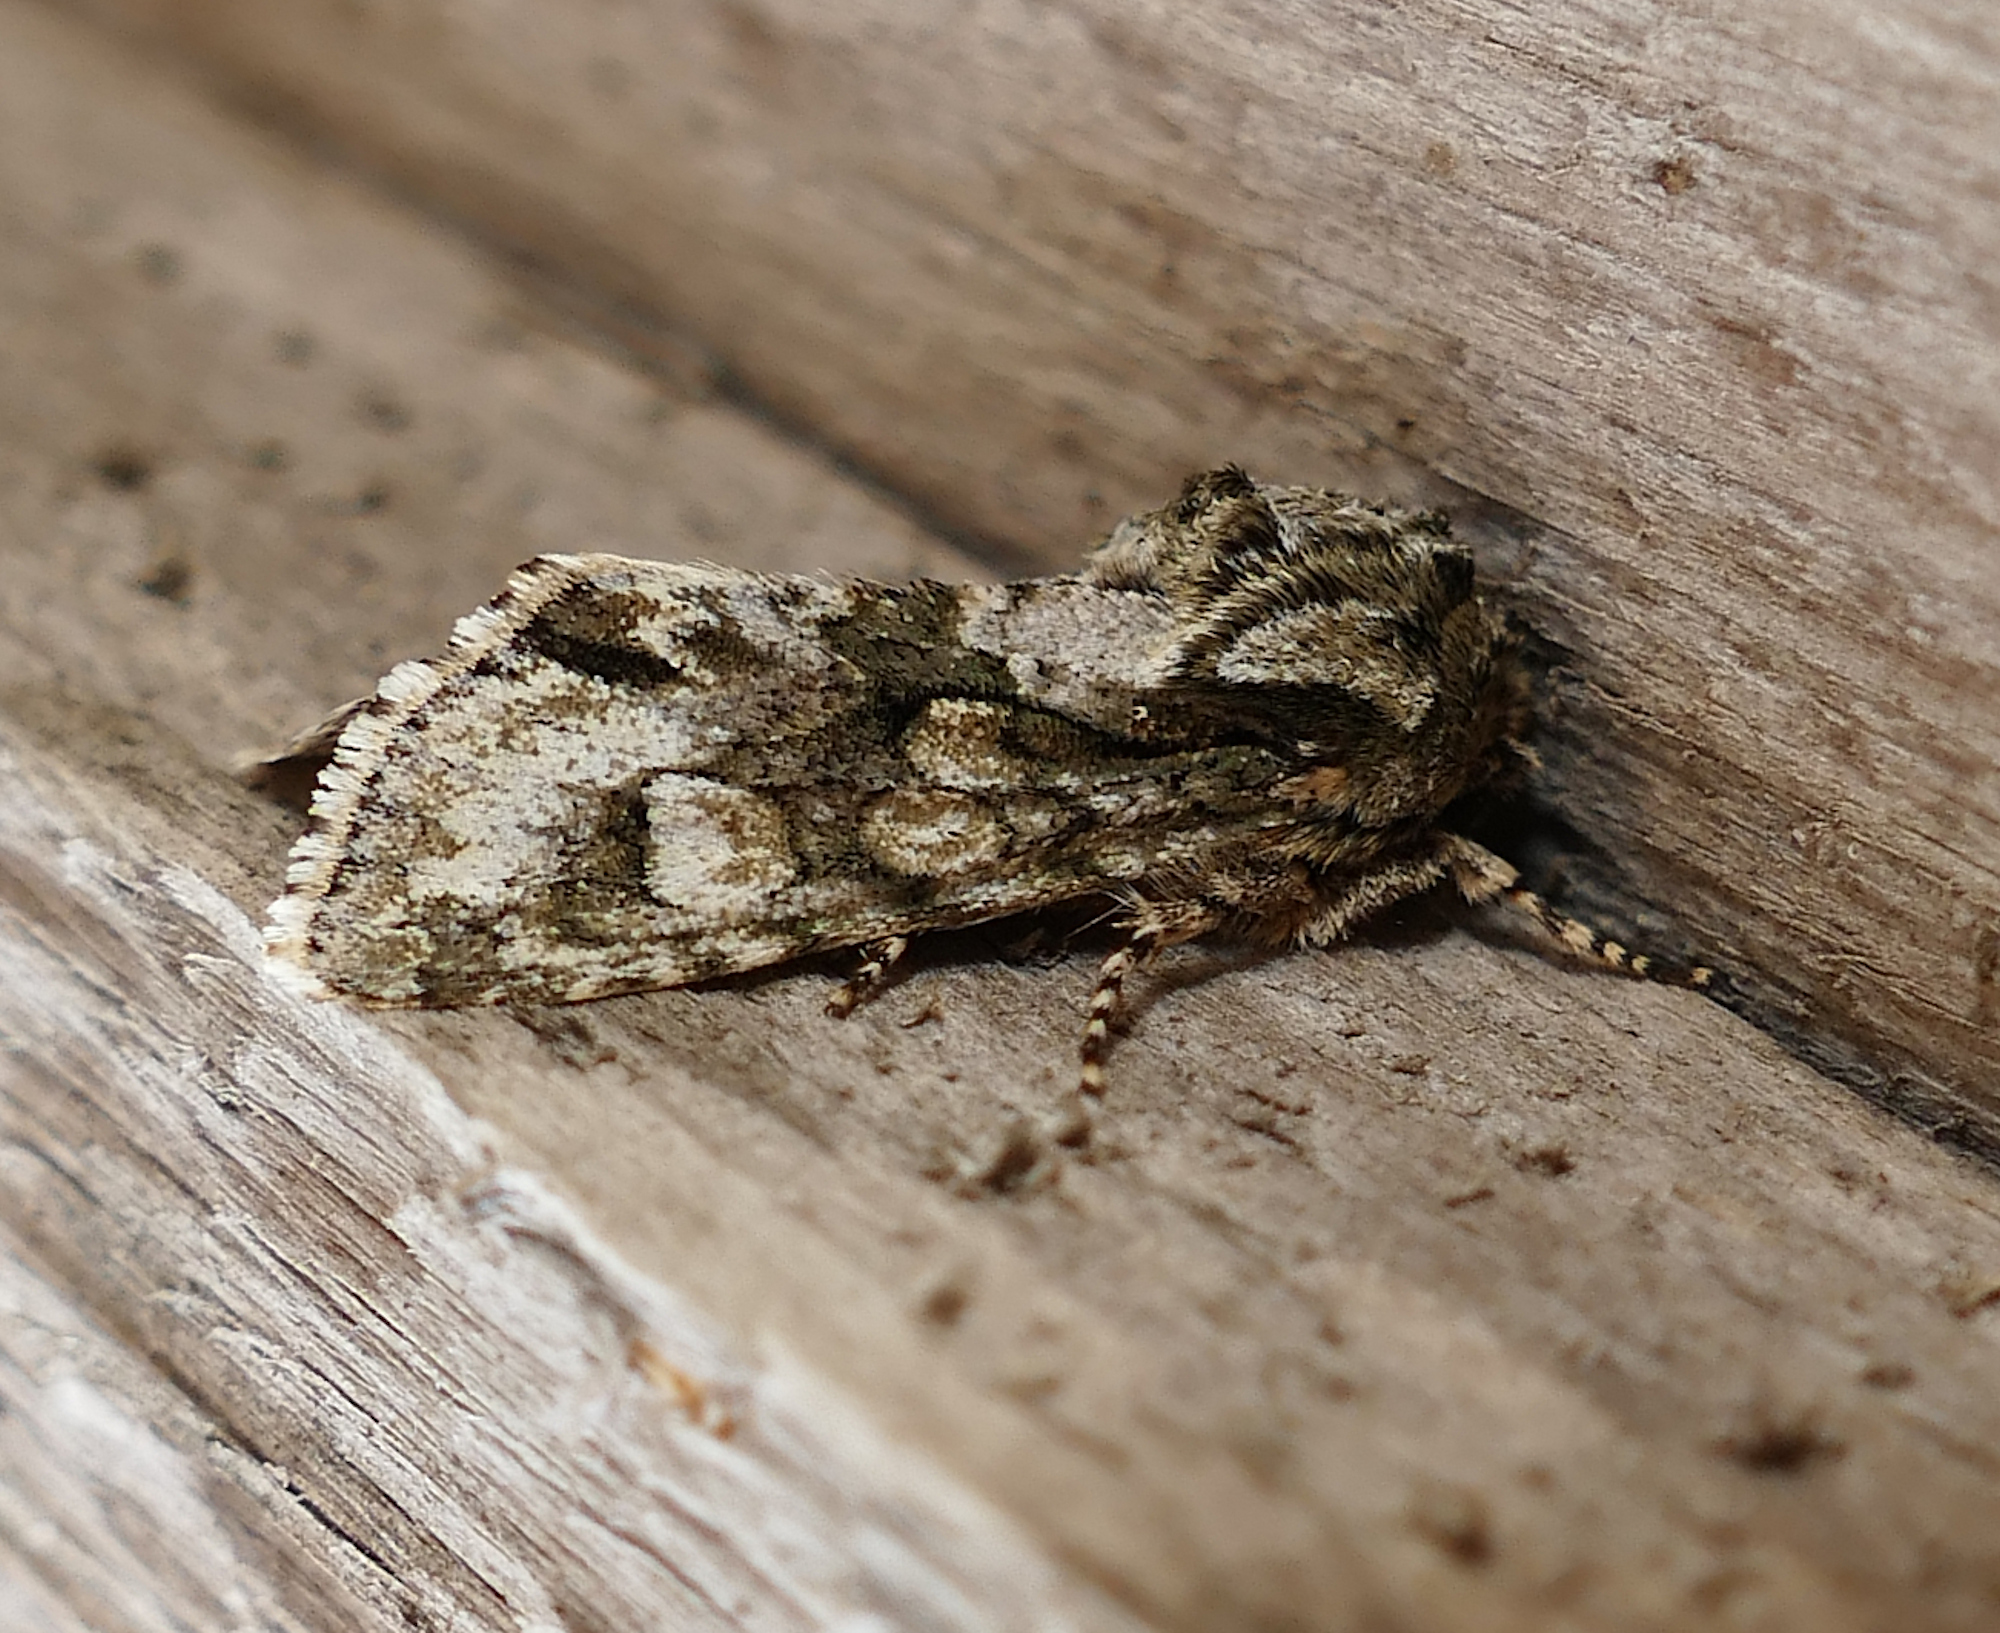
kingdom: Animalia
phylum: Arthropoda
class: Insecta
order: Lepidoptera
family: Noctuidae
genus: Psaphida
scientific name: Psaphida resumens
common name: Figure-eight sallow
